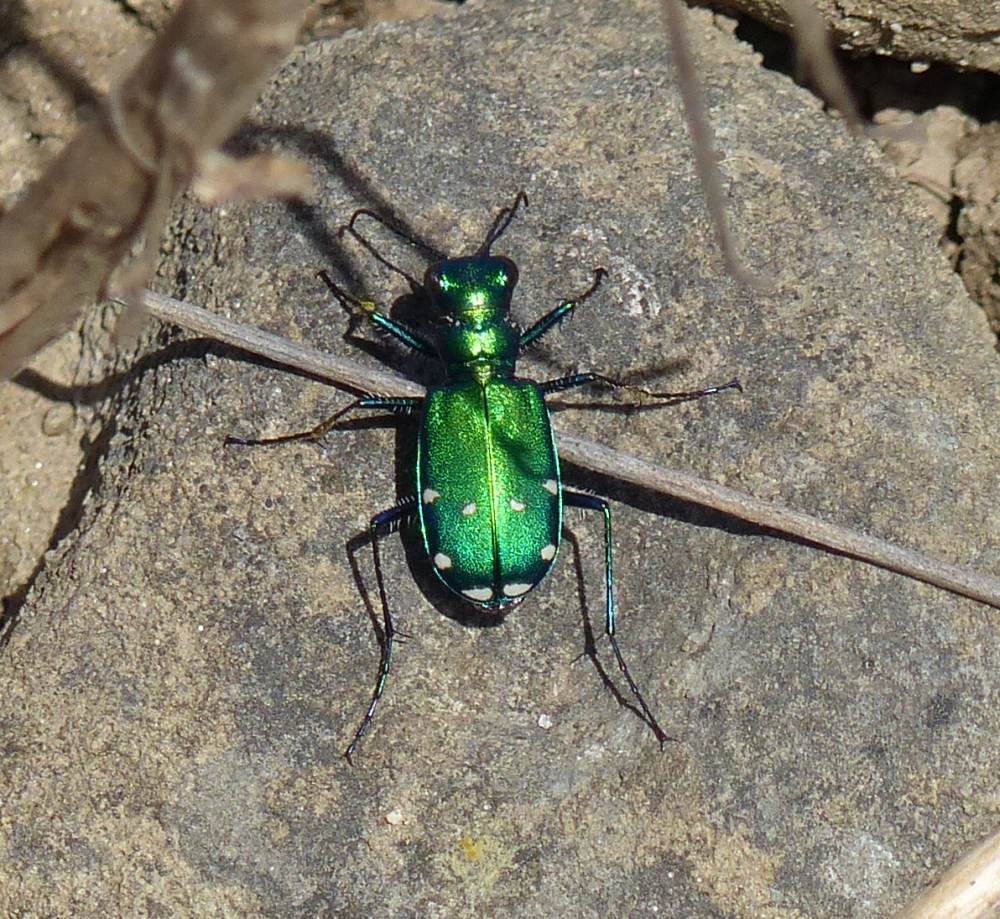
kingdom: Animalia
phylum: Arthropoda
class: Insecta
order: Coleoptera
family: Carabidae
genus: Cicindela
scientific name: Cicindela sexguttata
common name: Six-spotted tiger beetle
